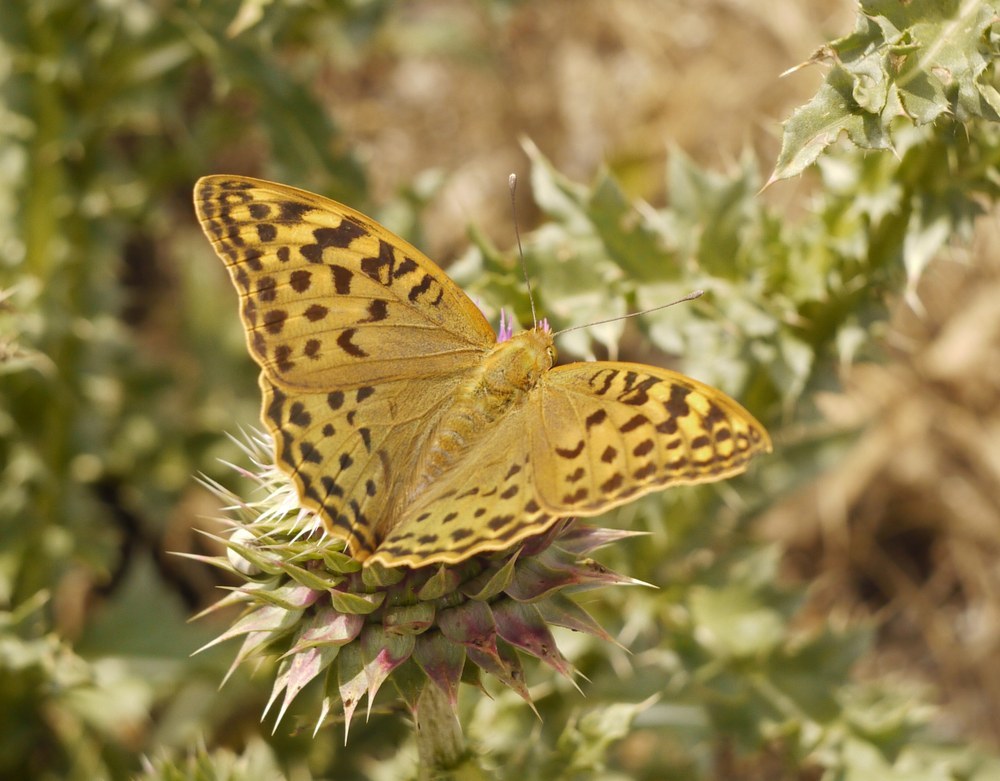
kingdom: Animalia
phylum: Arthropoda
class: Insecta
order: Lepidoptera
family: Nymphalidae
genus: Damora
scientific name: Damora pandora
